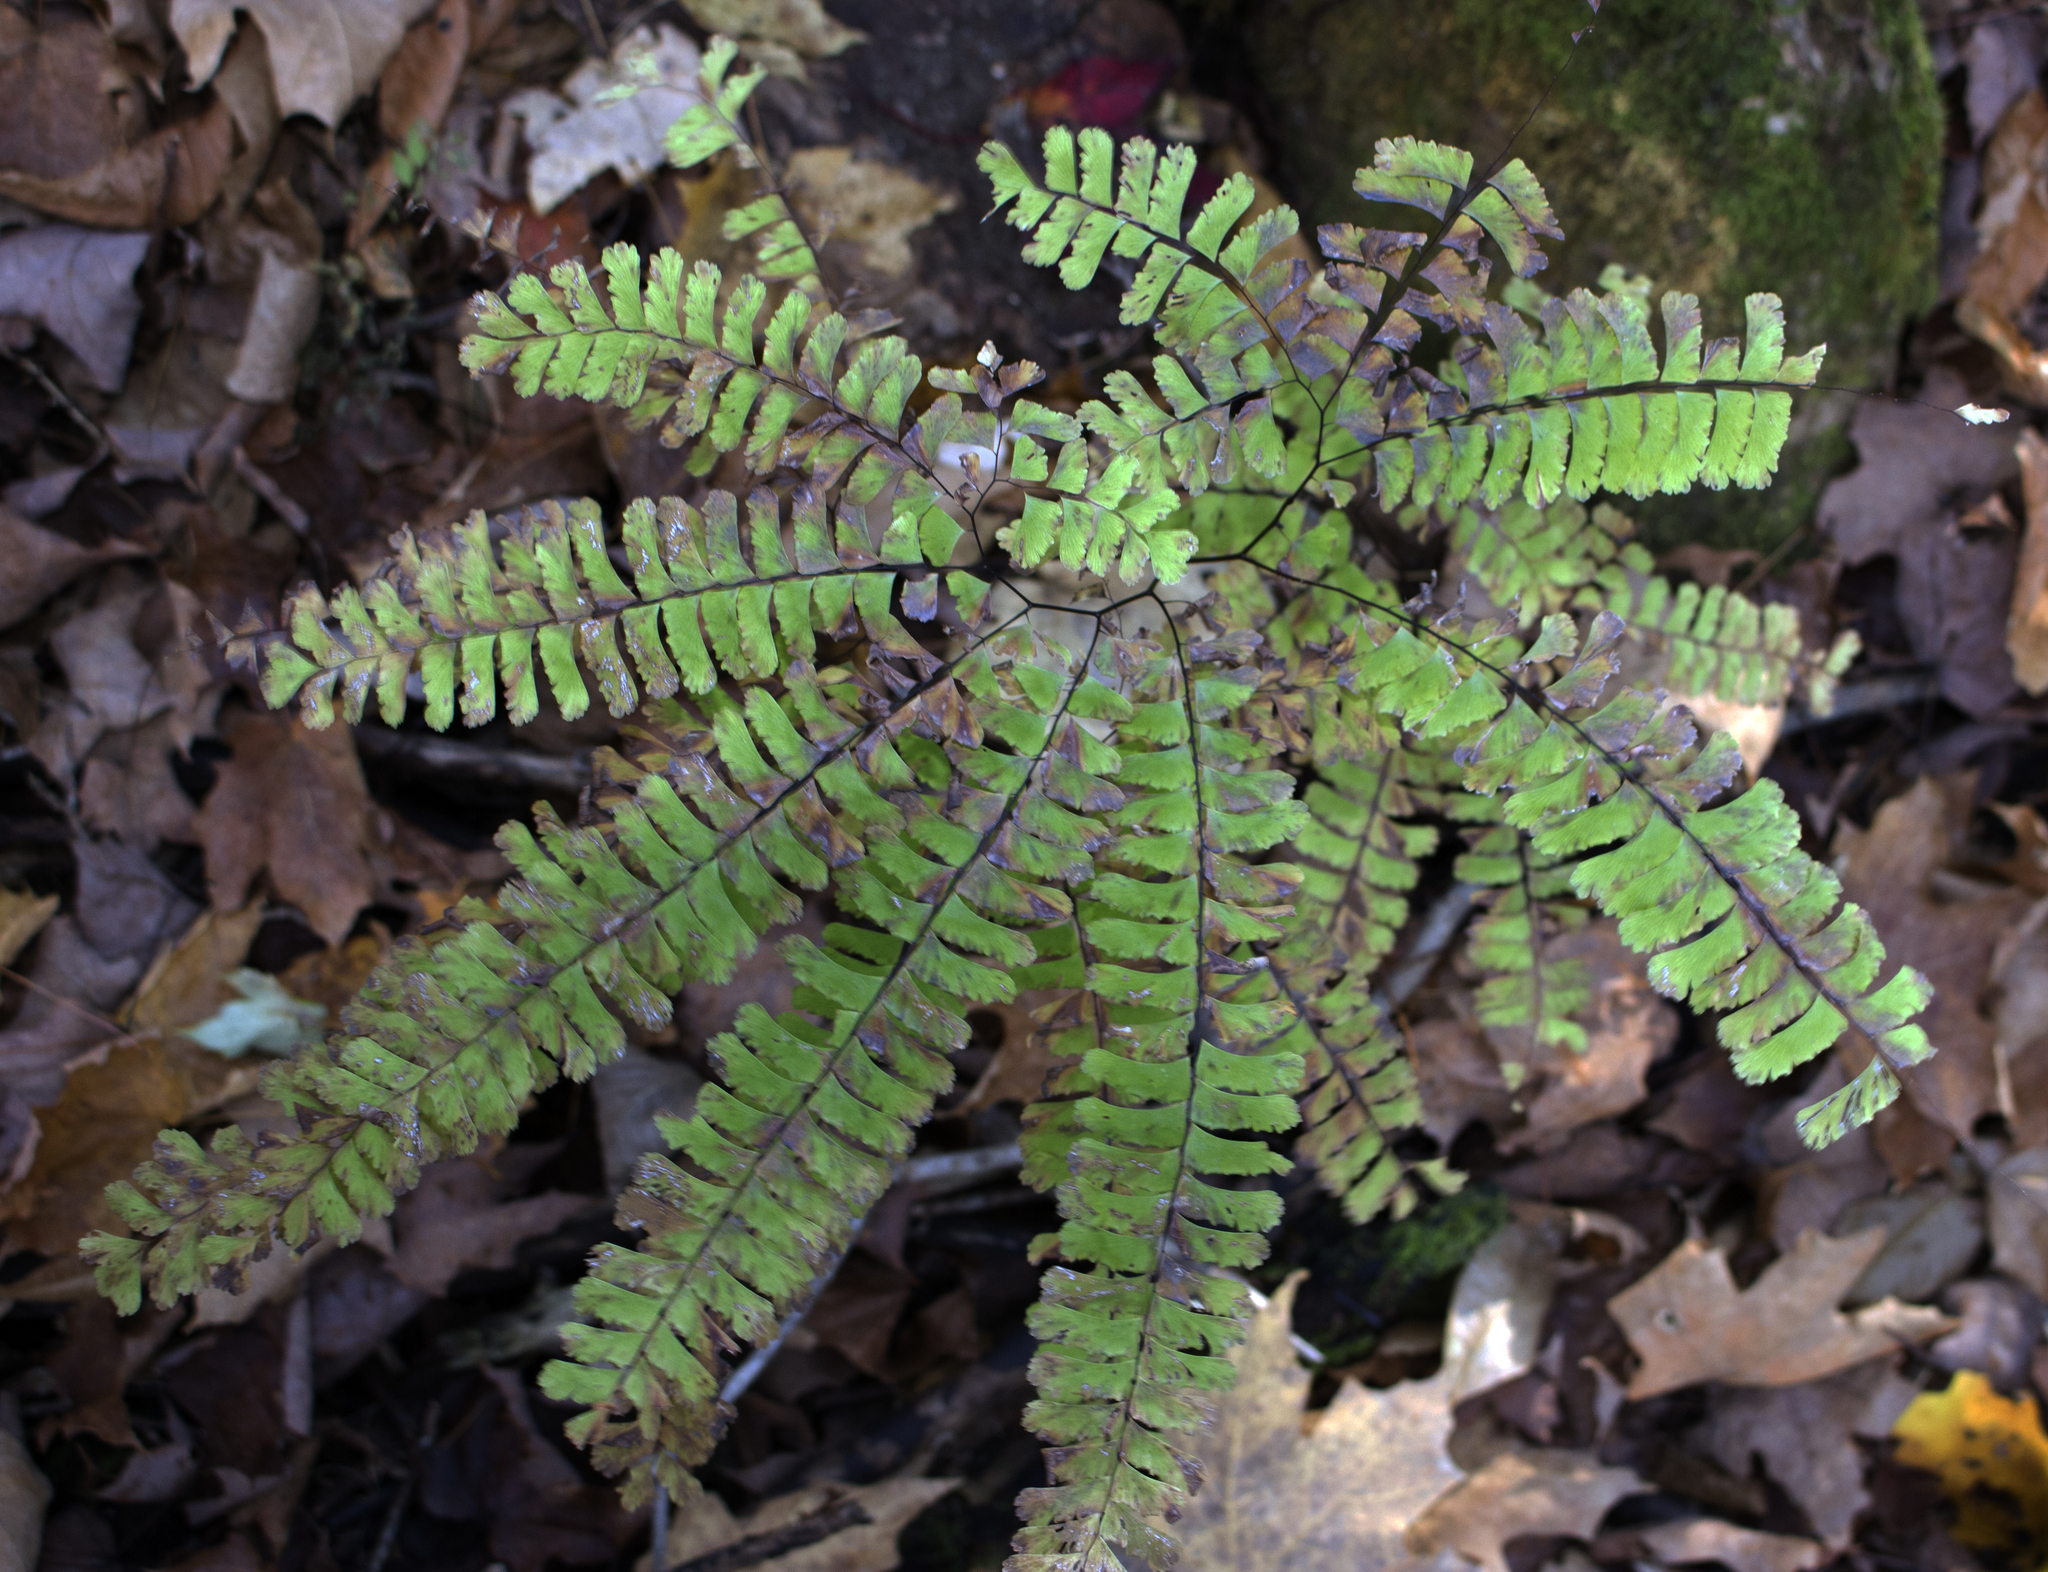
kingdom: Plantae
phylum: Tracheophyta
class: Polypodiopsida
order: Polypodiales
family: Pteridaceae
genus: Adiantum
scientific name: Adiantum pedatum
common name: Five-finger fern
